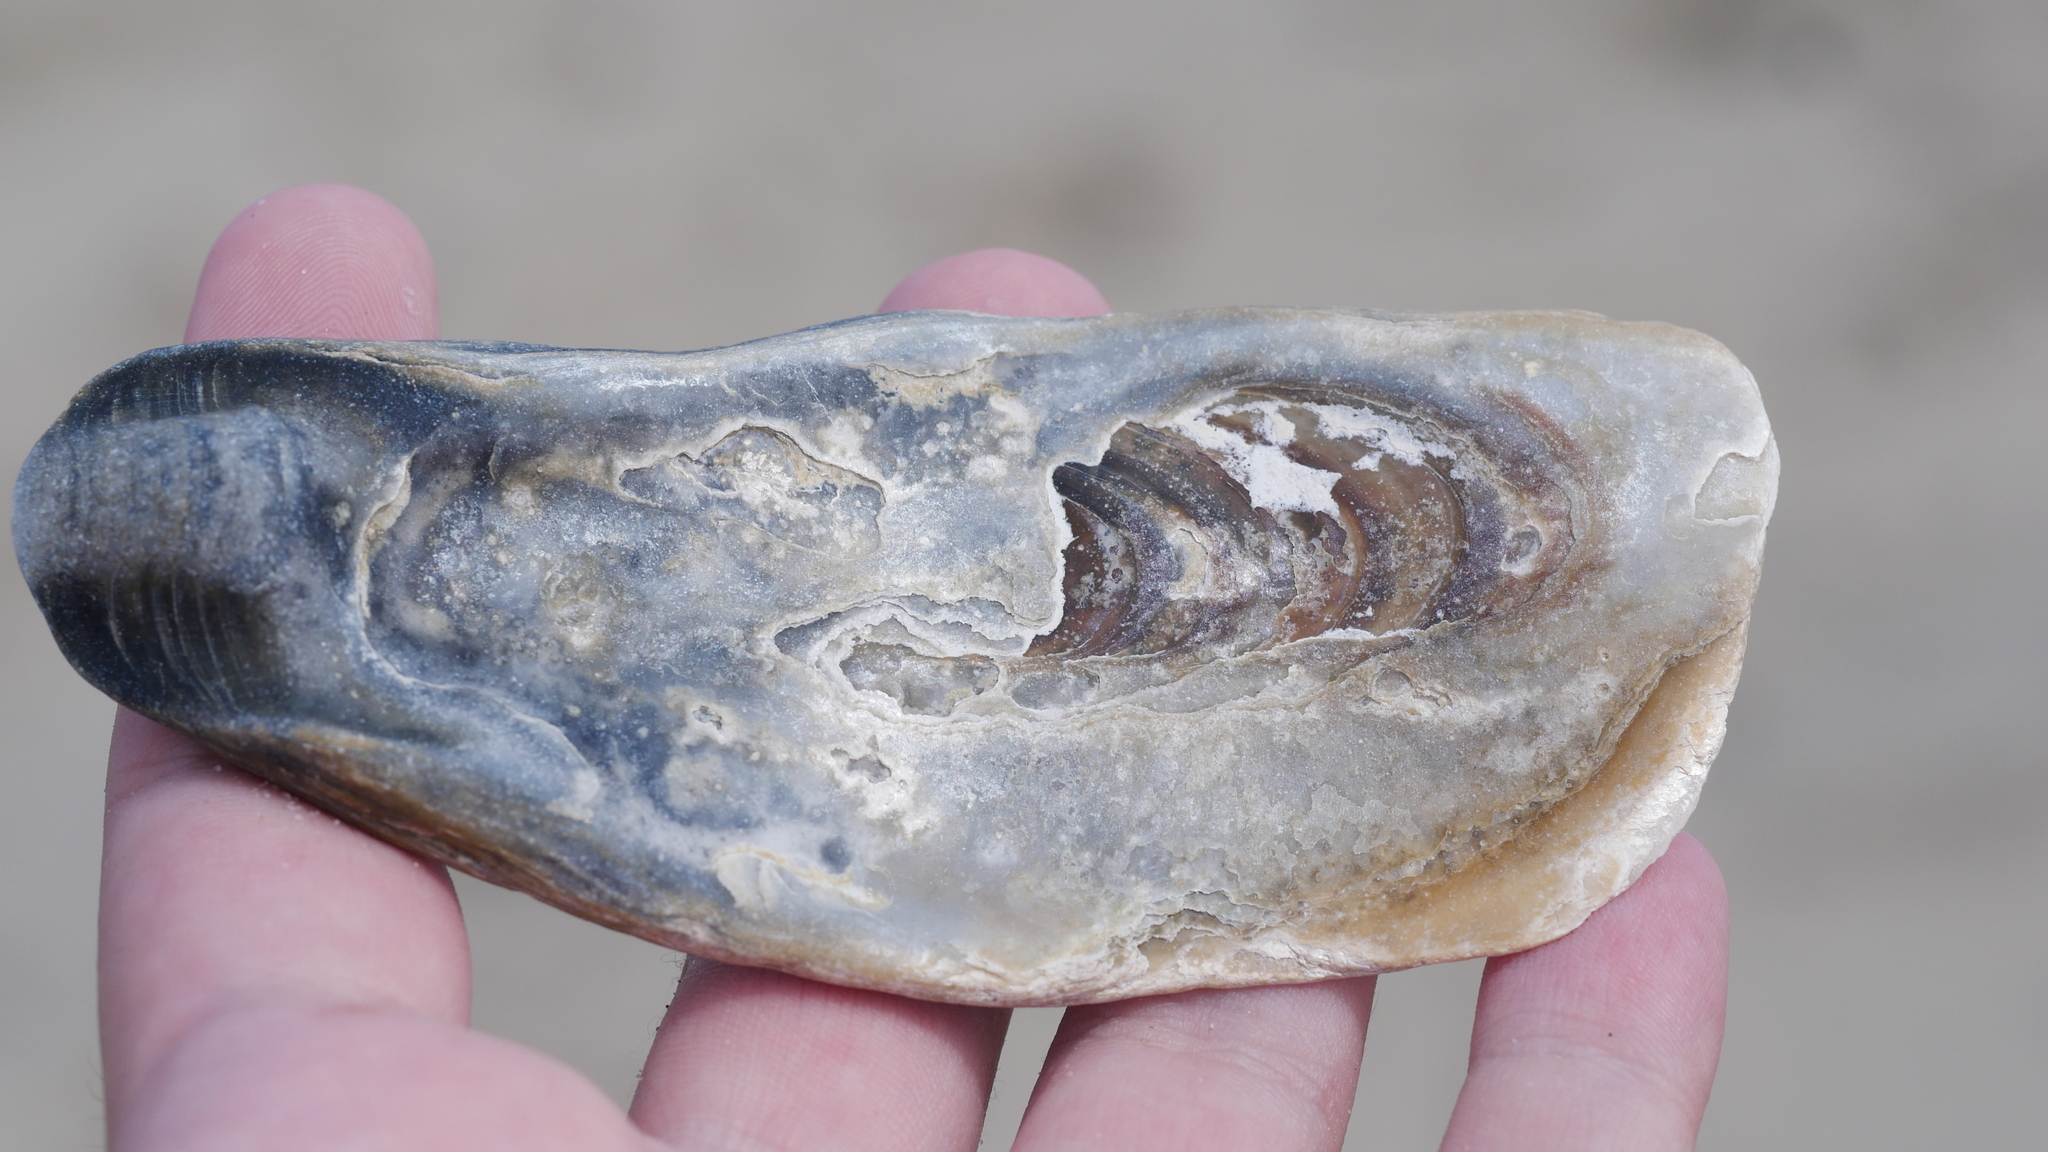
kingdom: Animalia
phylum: Mollusca
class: Bivalvia
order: Ostreida
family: Ostreidae
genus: Crassostrea
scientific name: Crassostrea virginica
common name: American oyster
